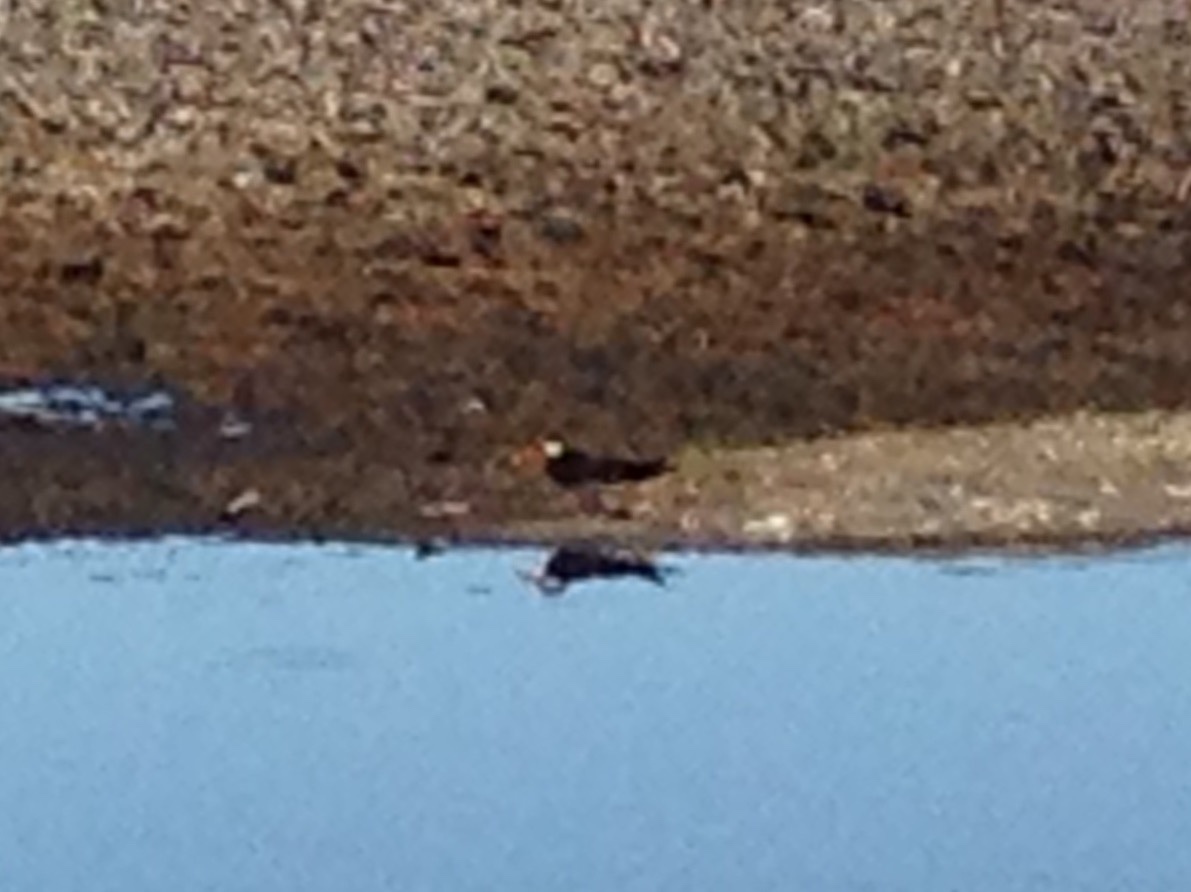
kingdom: Animalia
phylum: Chordata
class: Aves
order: Charadriiformes
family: Laridae
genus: Rynchops
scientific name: Rynchops flavirostris
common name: African skimmer
